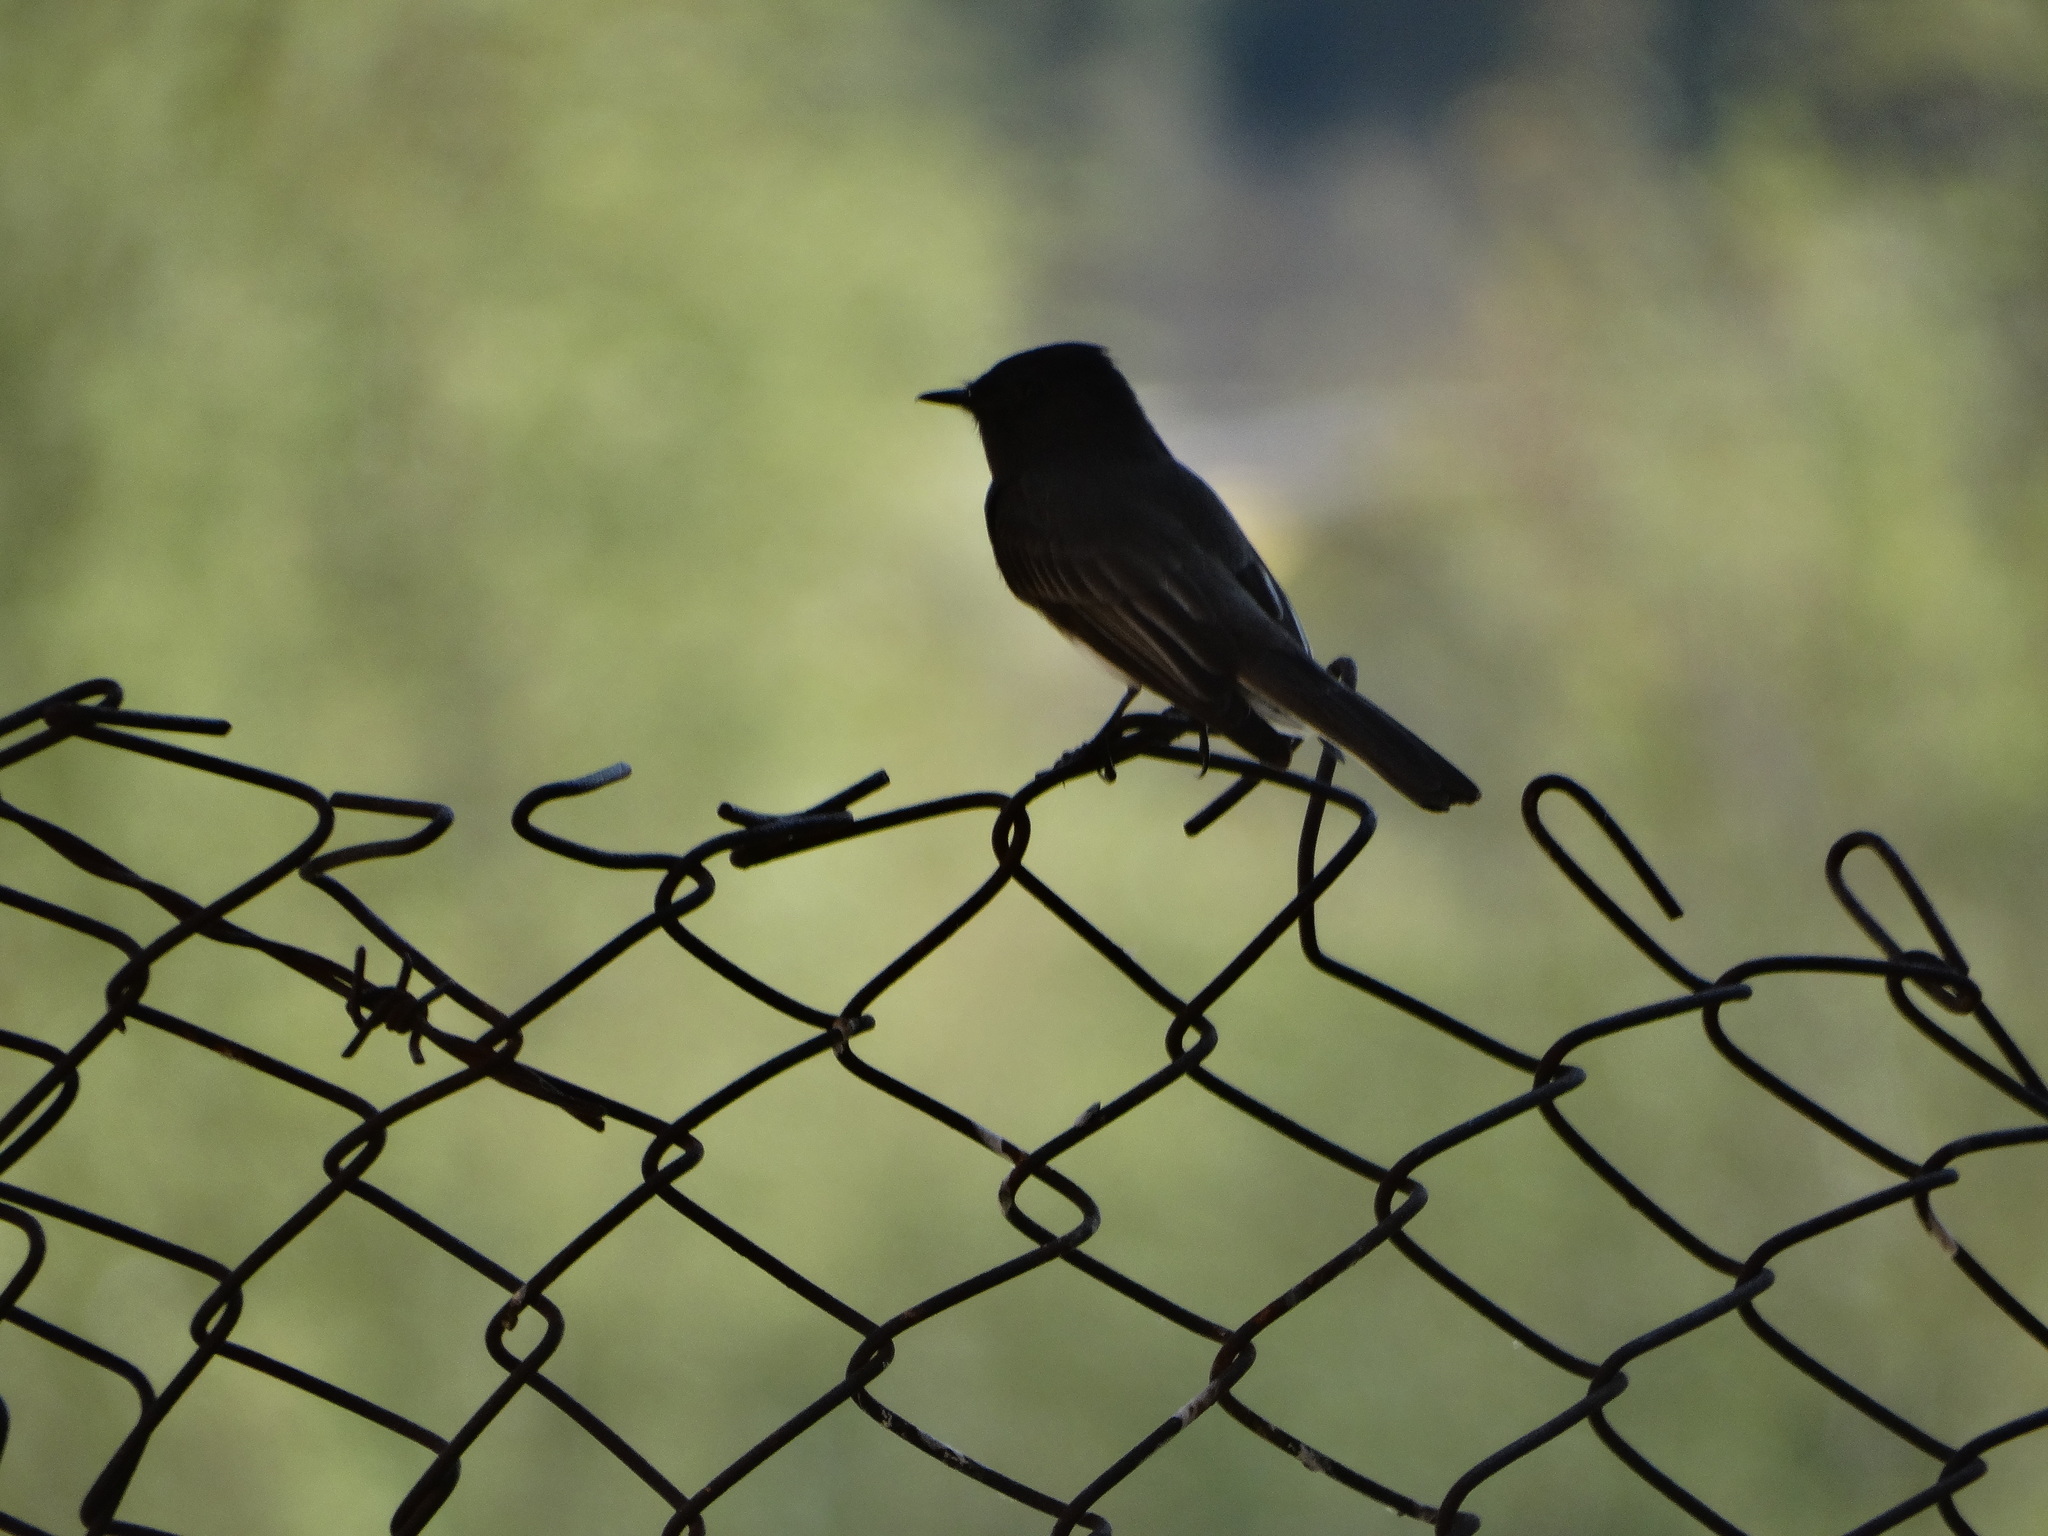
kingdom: Animalia
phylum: Chordata
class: Aves
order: Passeriformes
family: Tyrannidae
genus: Sayornis
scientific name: Sayornis nigricans
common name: Black phoebe
